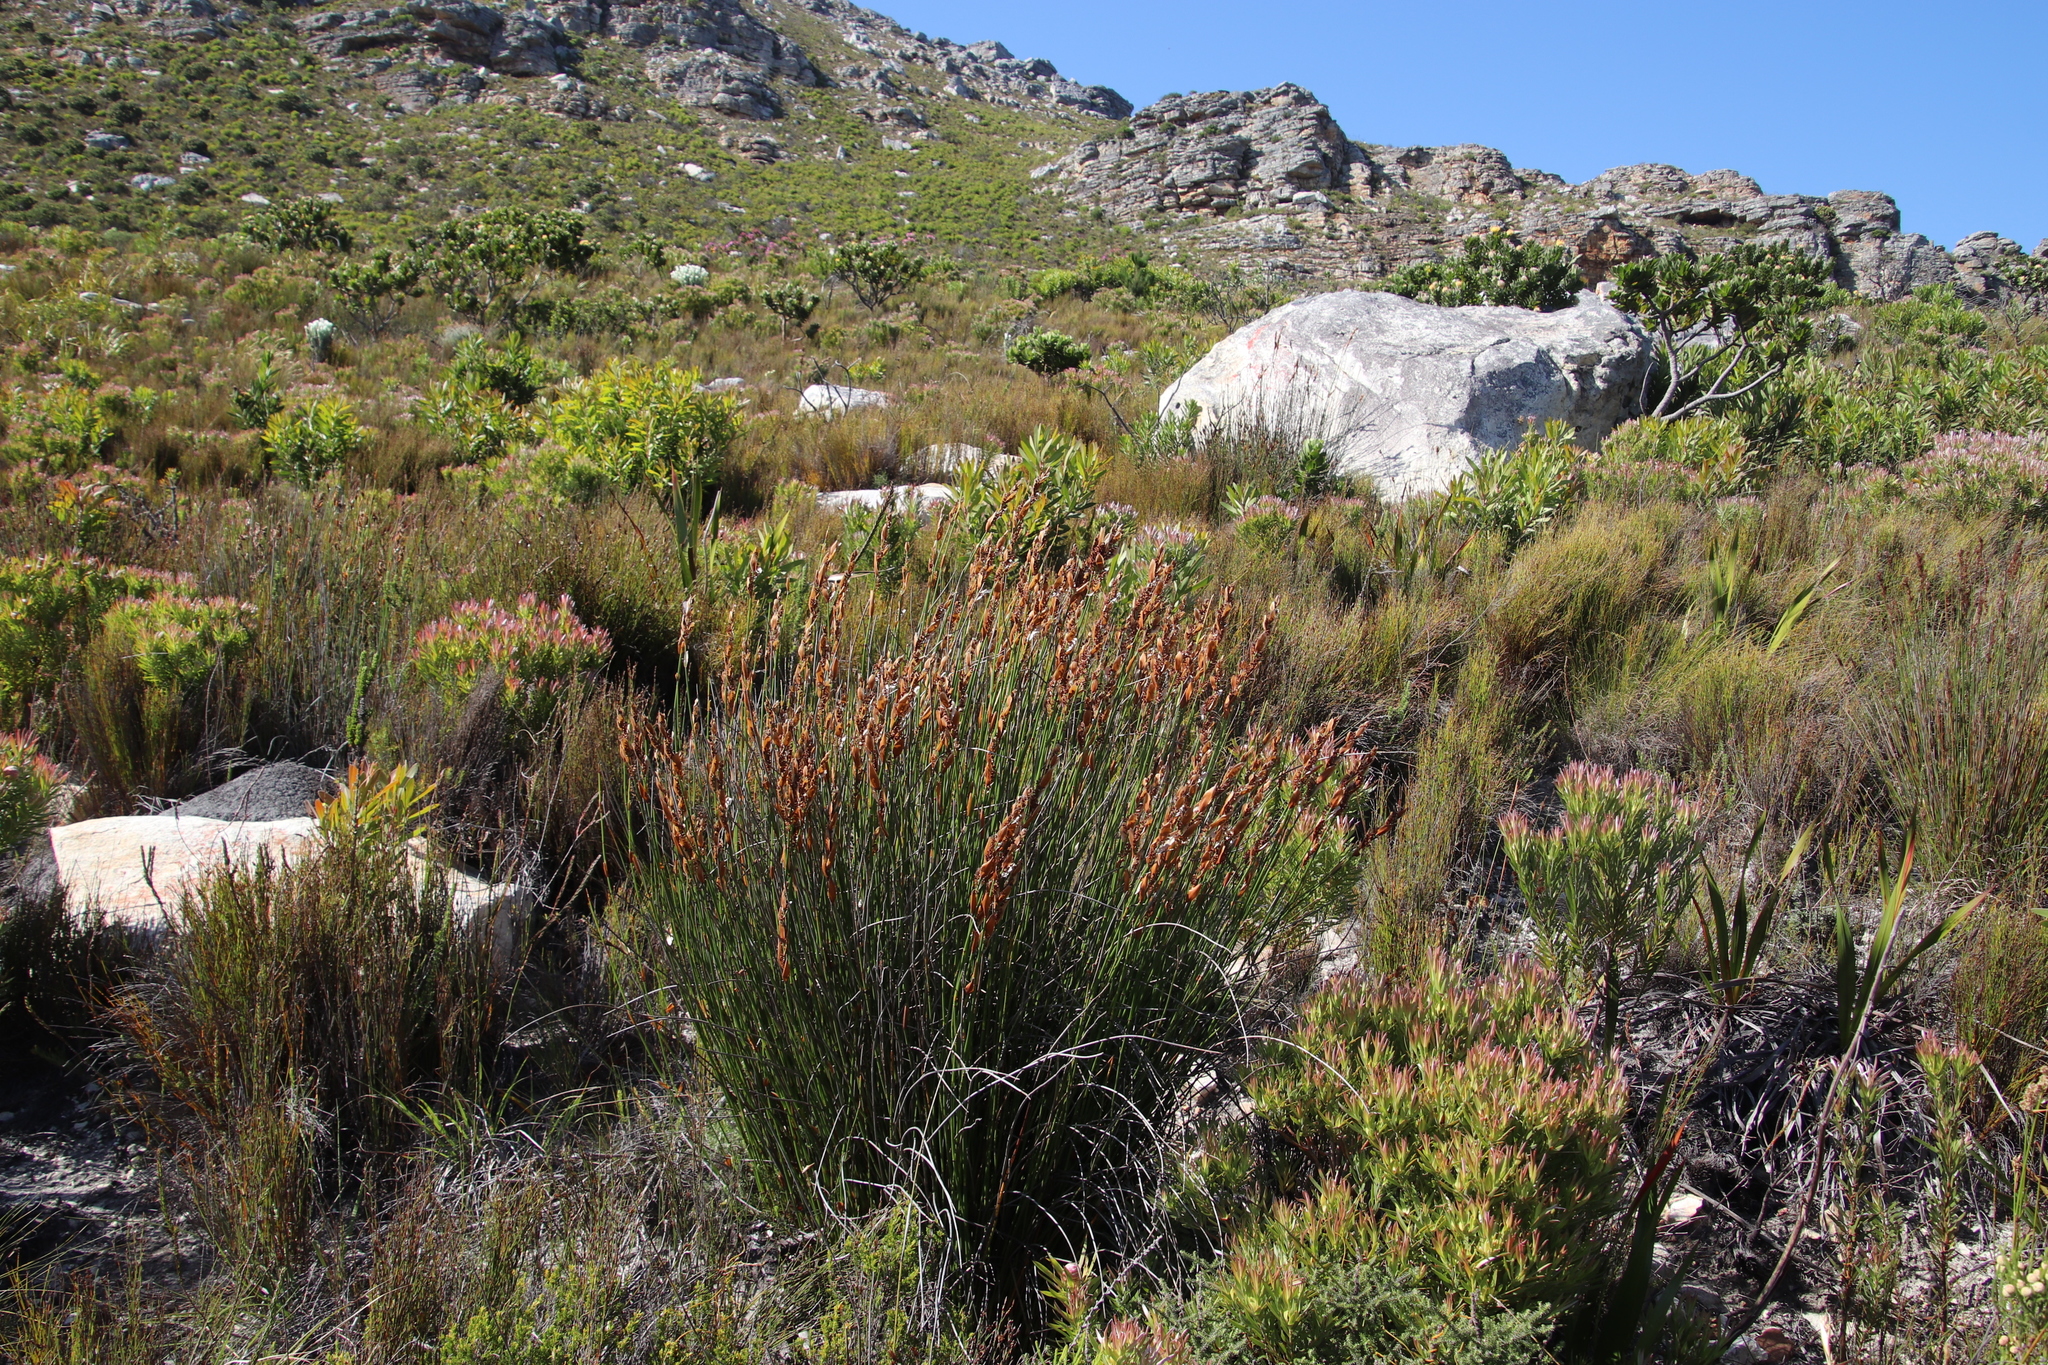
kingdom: Plantae
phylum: Tracheophyta
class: Liliopsida
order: Poales
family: Restionaceae
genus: Elegia
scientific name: Elegia racemosa
